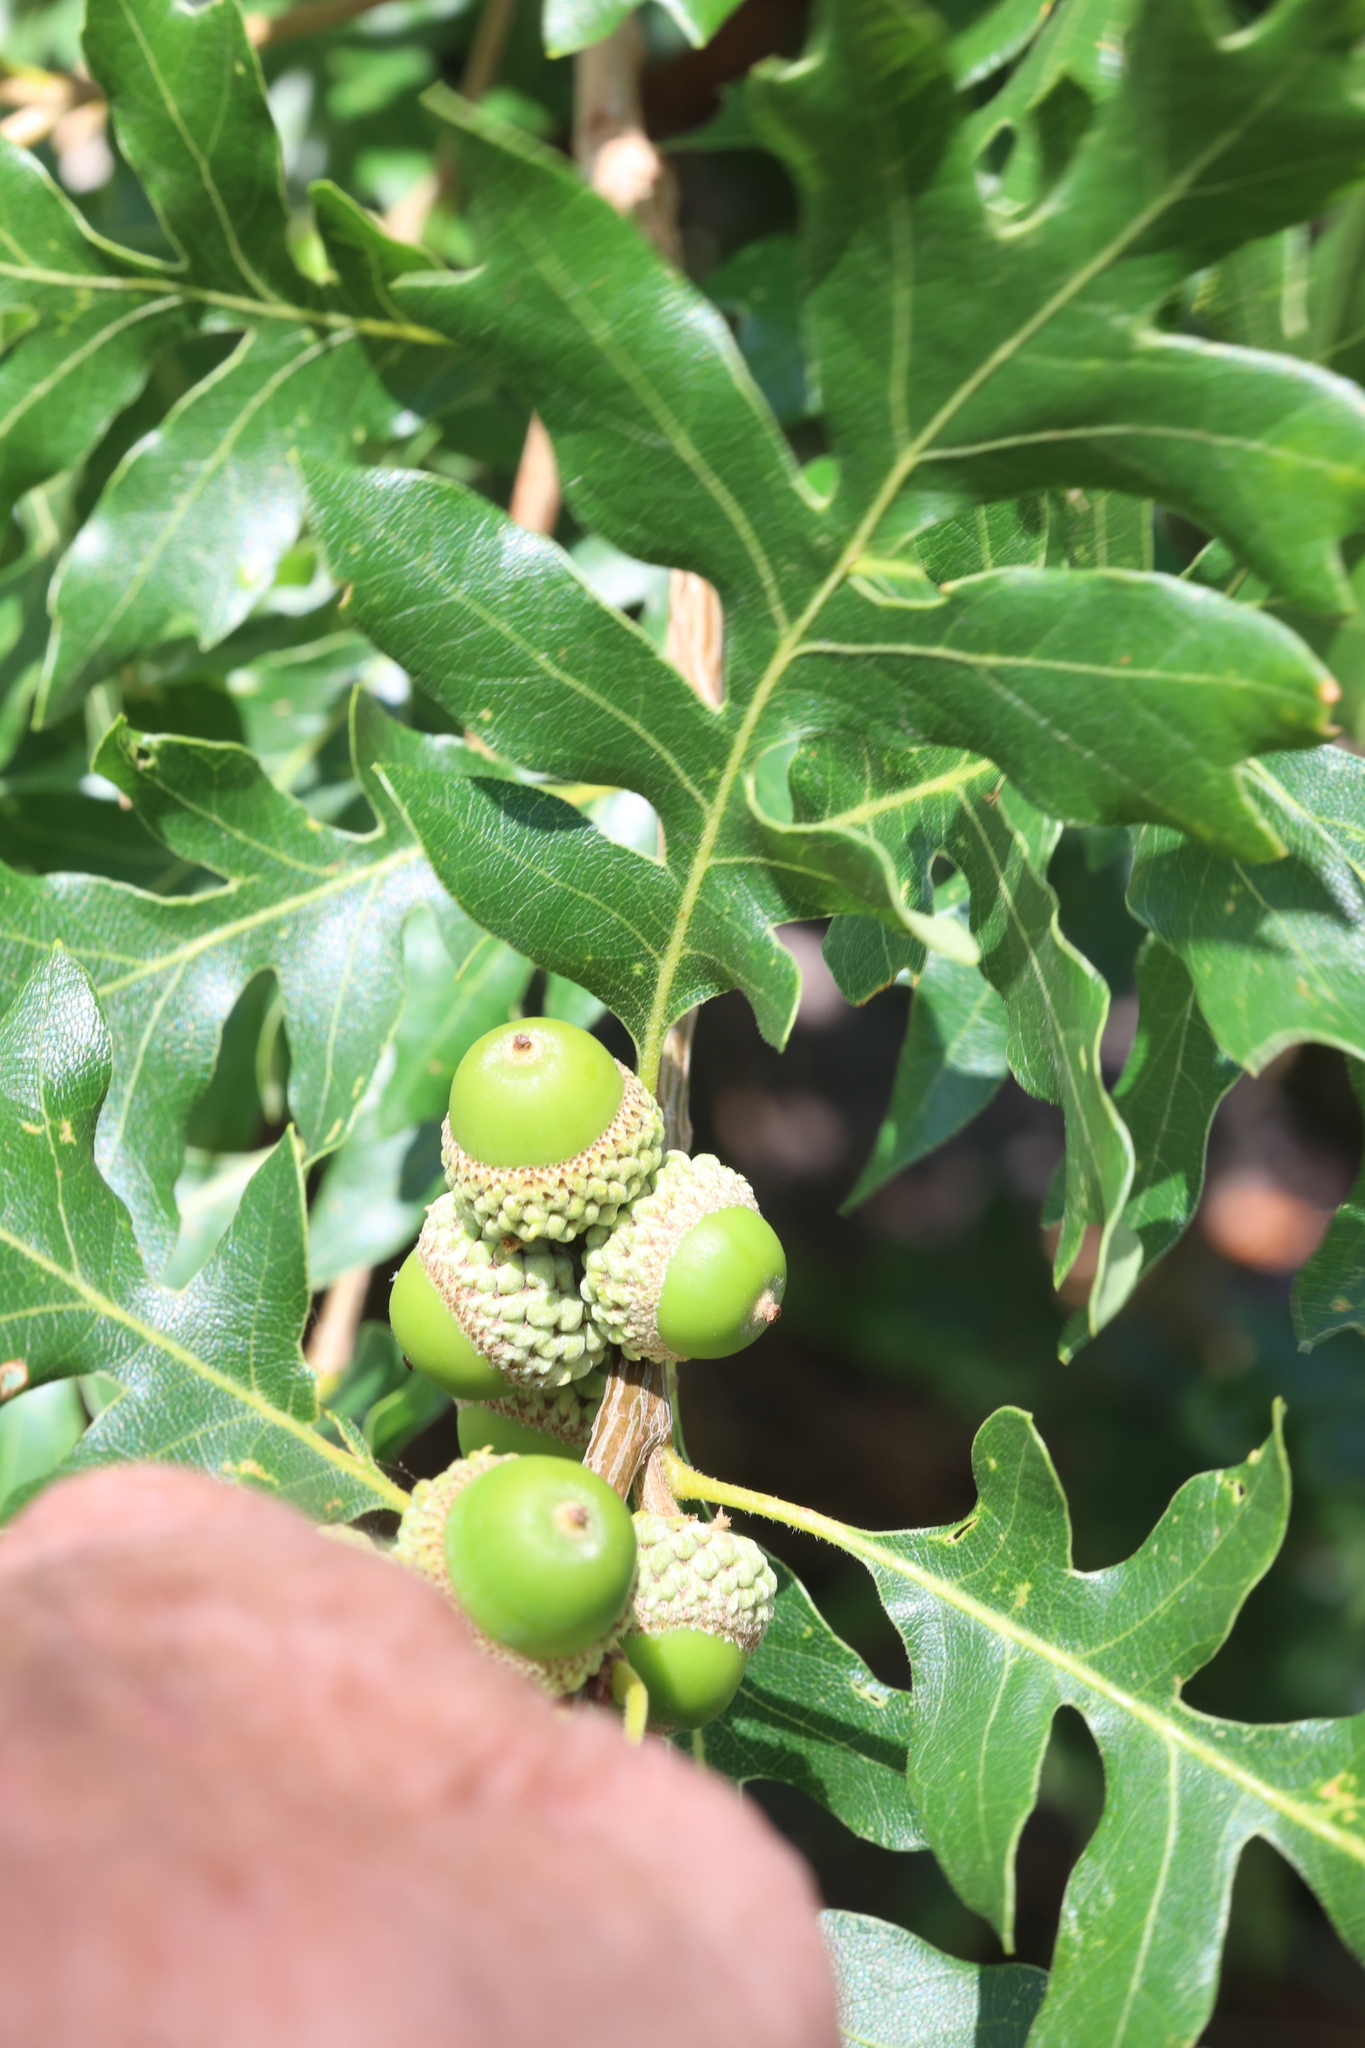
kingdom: Plantae
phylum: Tracheophyta
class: Magnoliopsida
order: Fagales
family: Fagaceae
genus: Quercus
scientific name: Quercus gambelii
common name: Gambel oak
